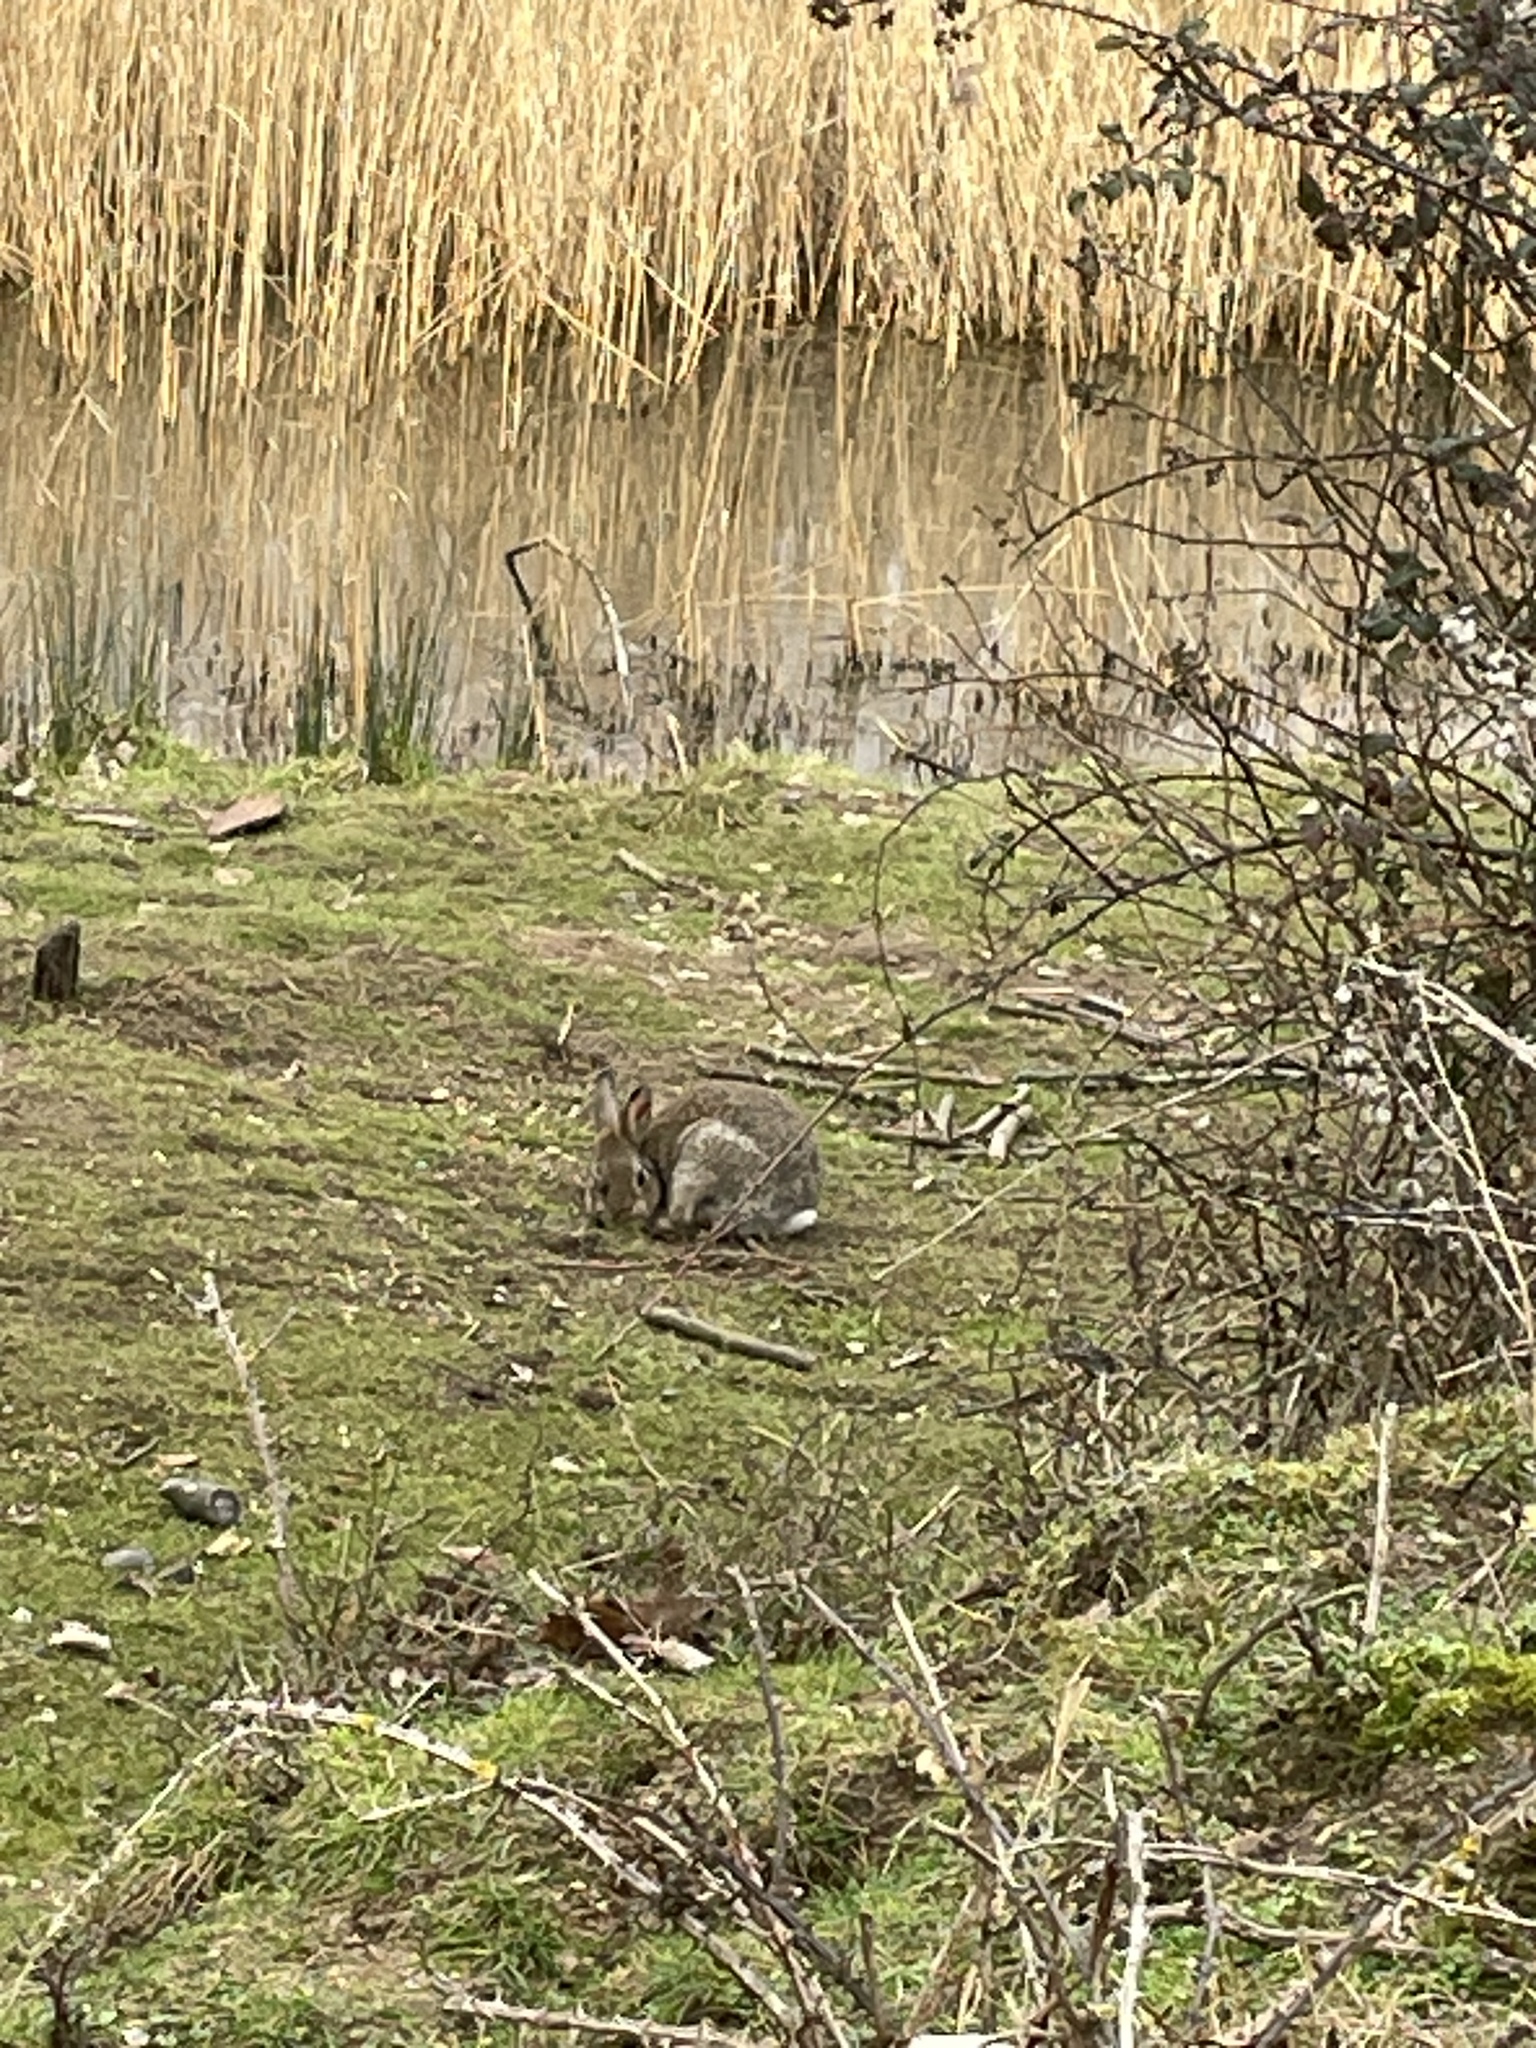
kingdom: Animalia
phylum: Chordata
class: Mammalia
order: Lagomorpha
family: Leporidae
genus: Oryctolagus
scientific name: Oryctolagus cuniculus
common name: European rabbit
